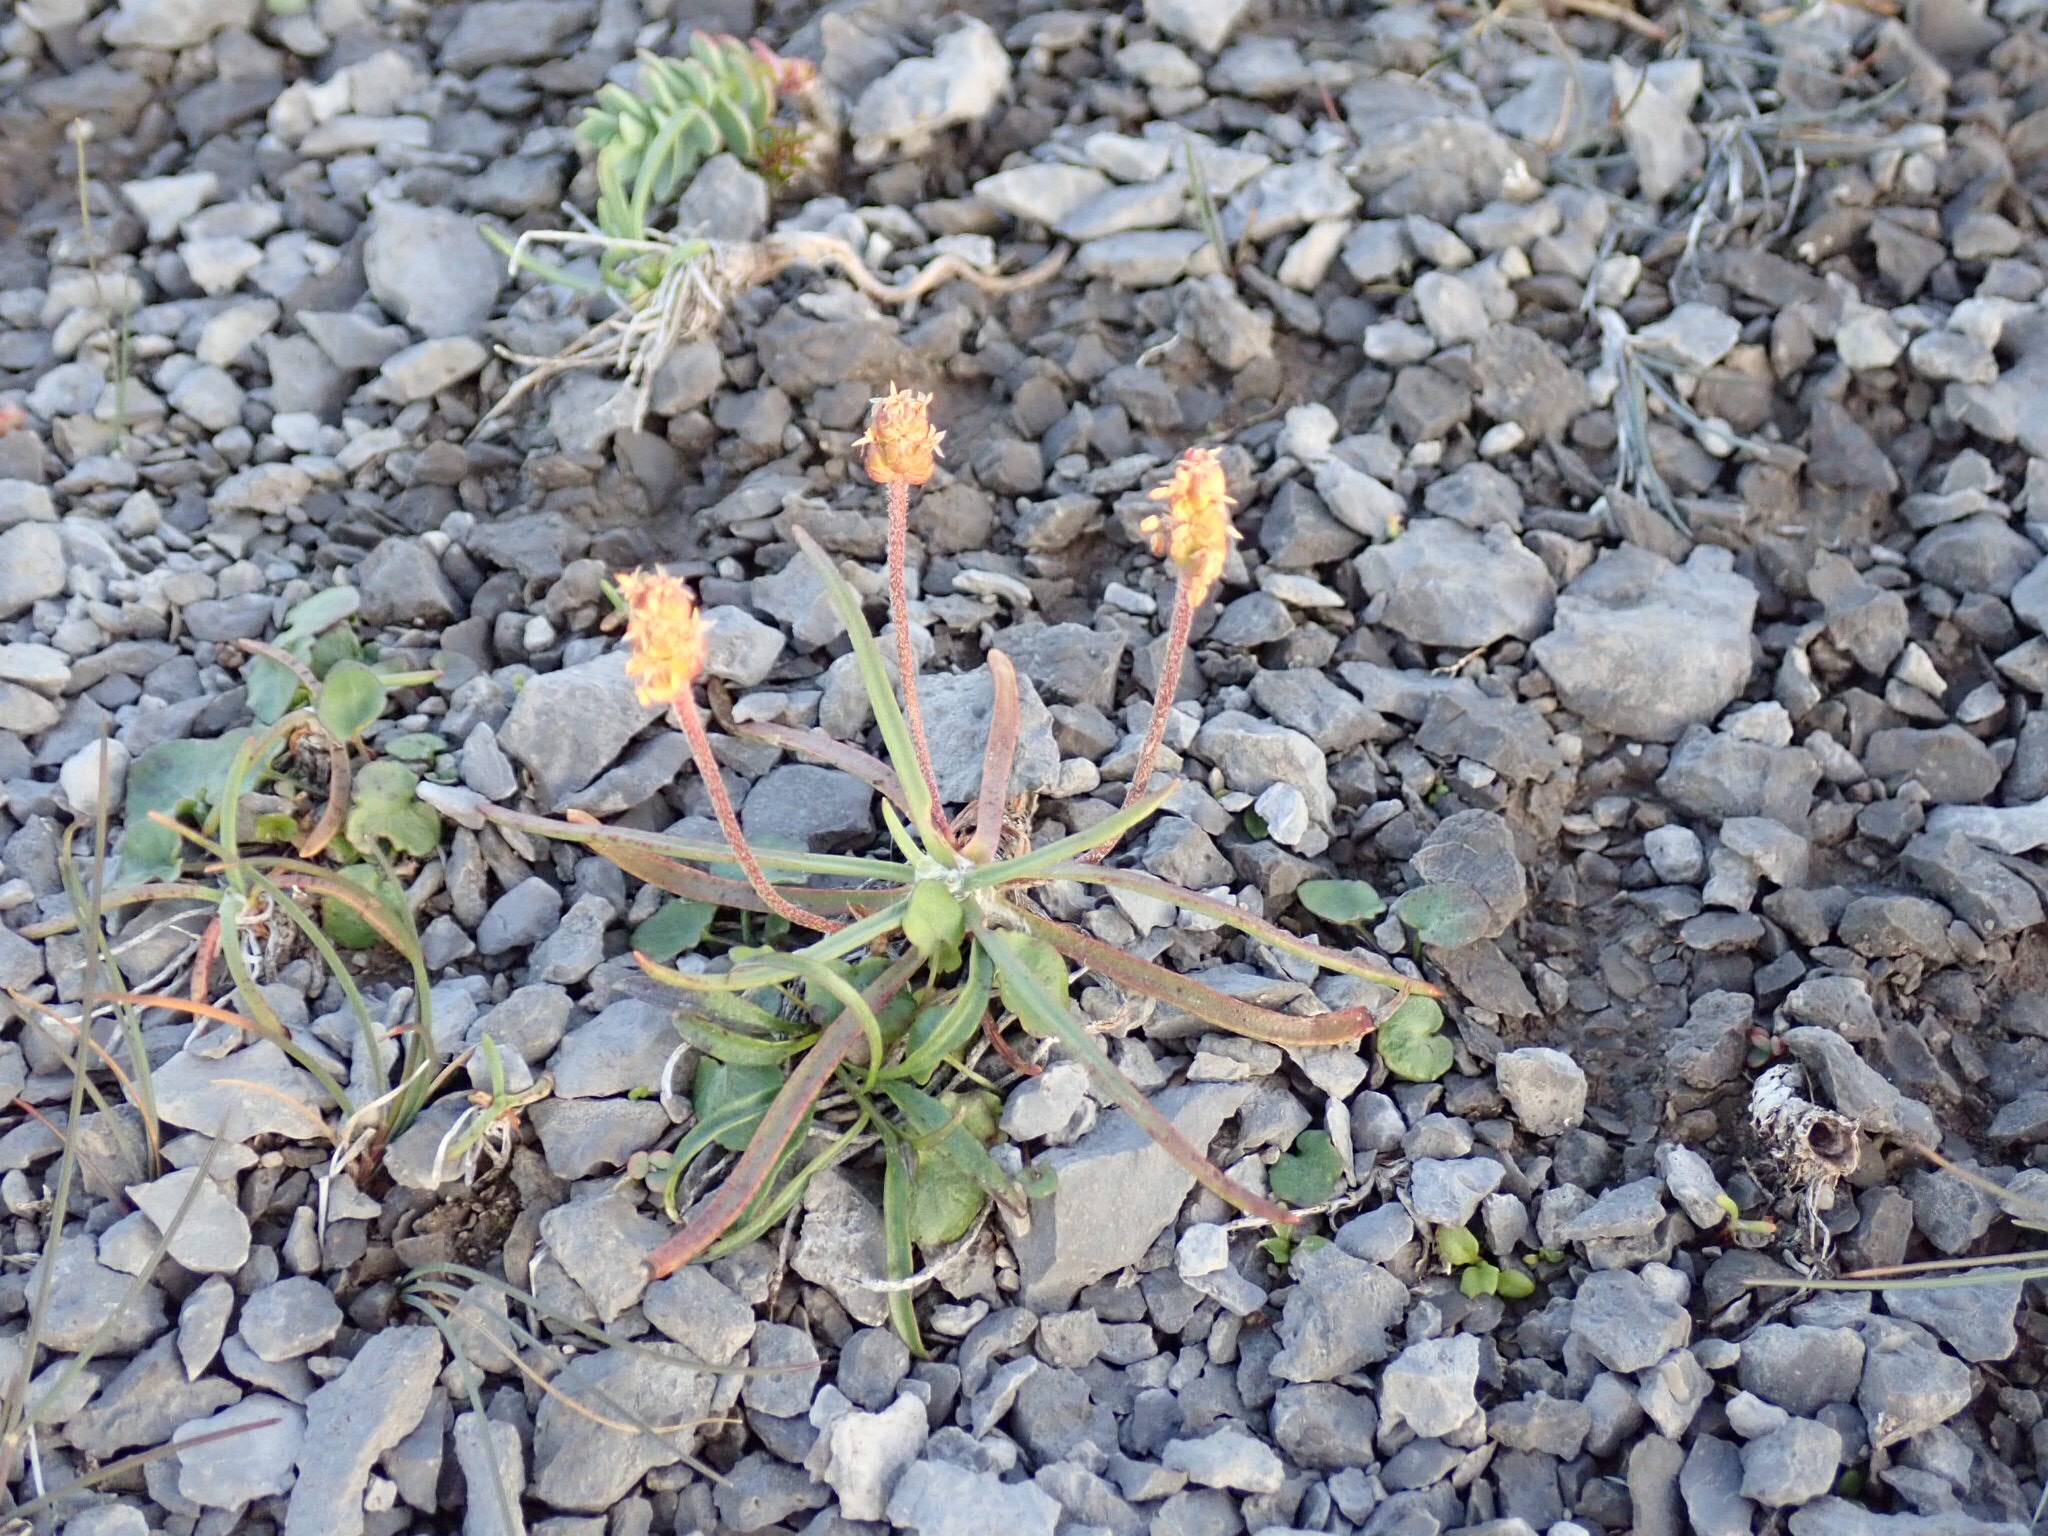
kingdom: Plantae
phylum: Tracheophyta
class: Magnoliopsida
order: Lamiales
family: Plantaginaceae
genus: Plantago
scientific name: Plantago maritima
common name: Sea plantain
